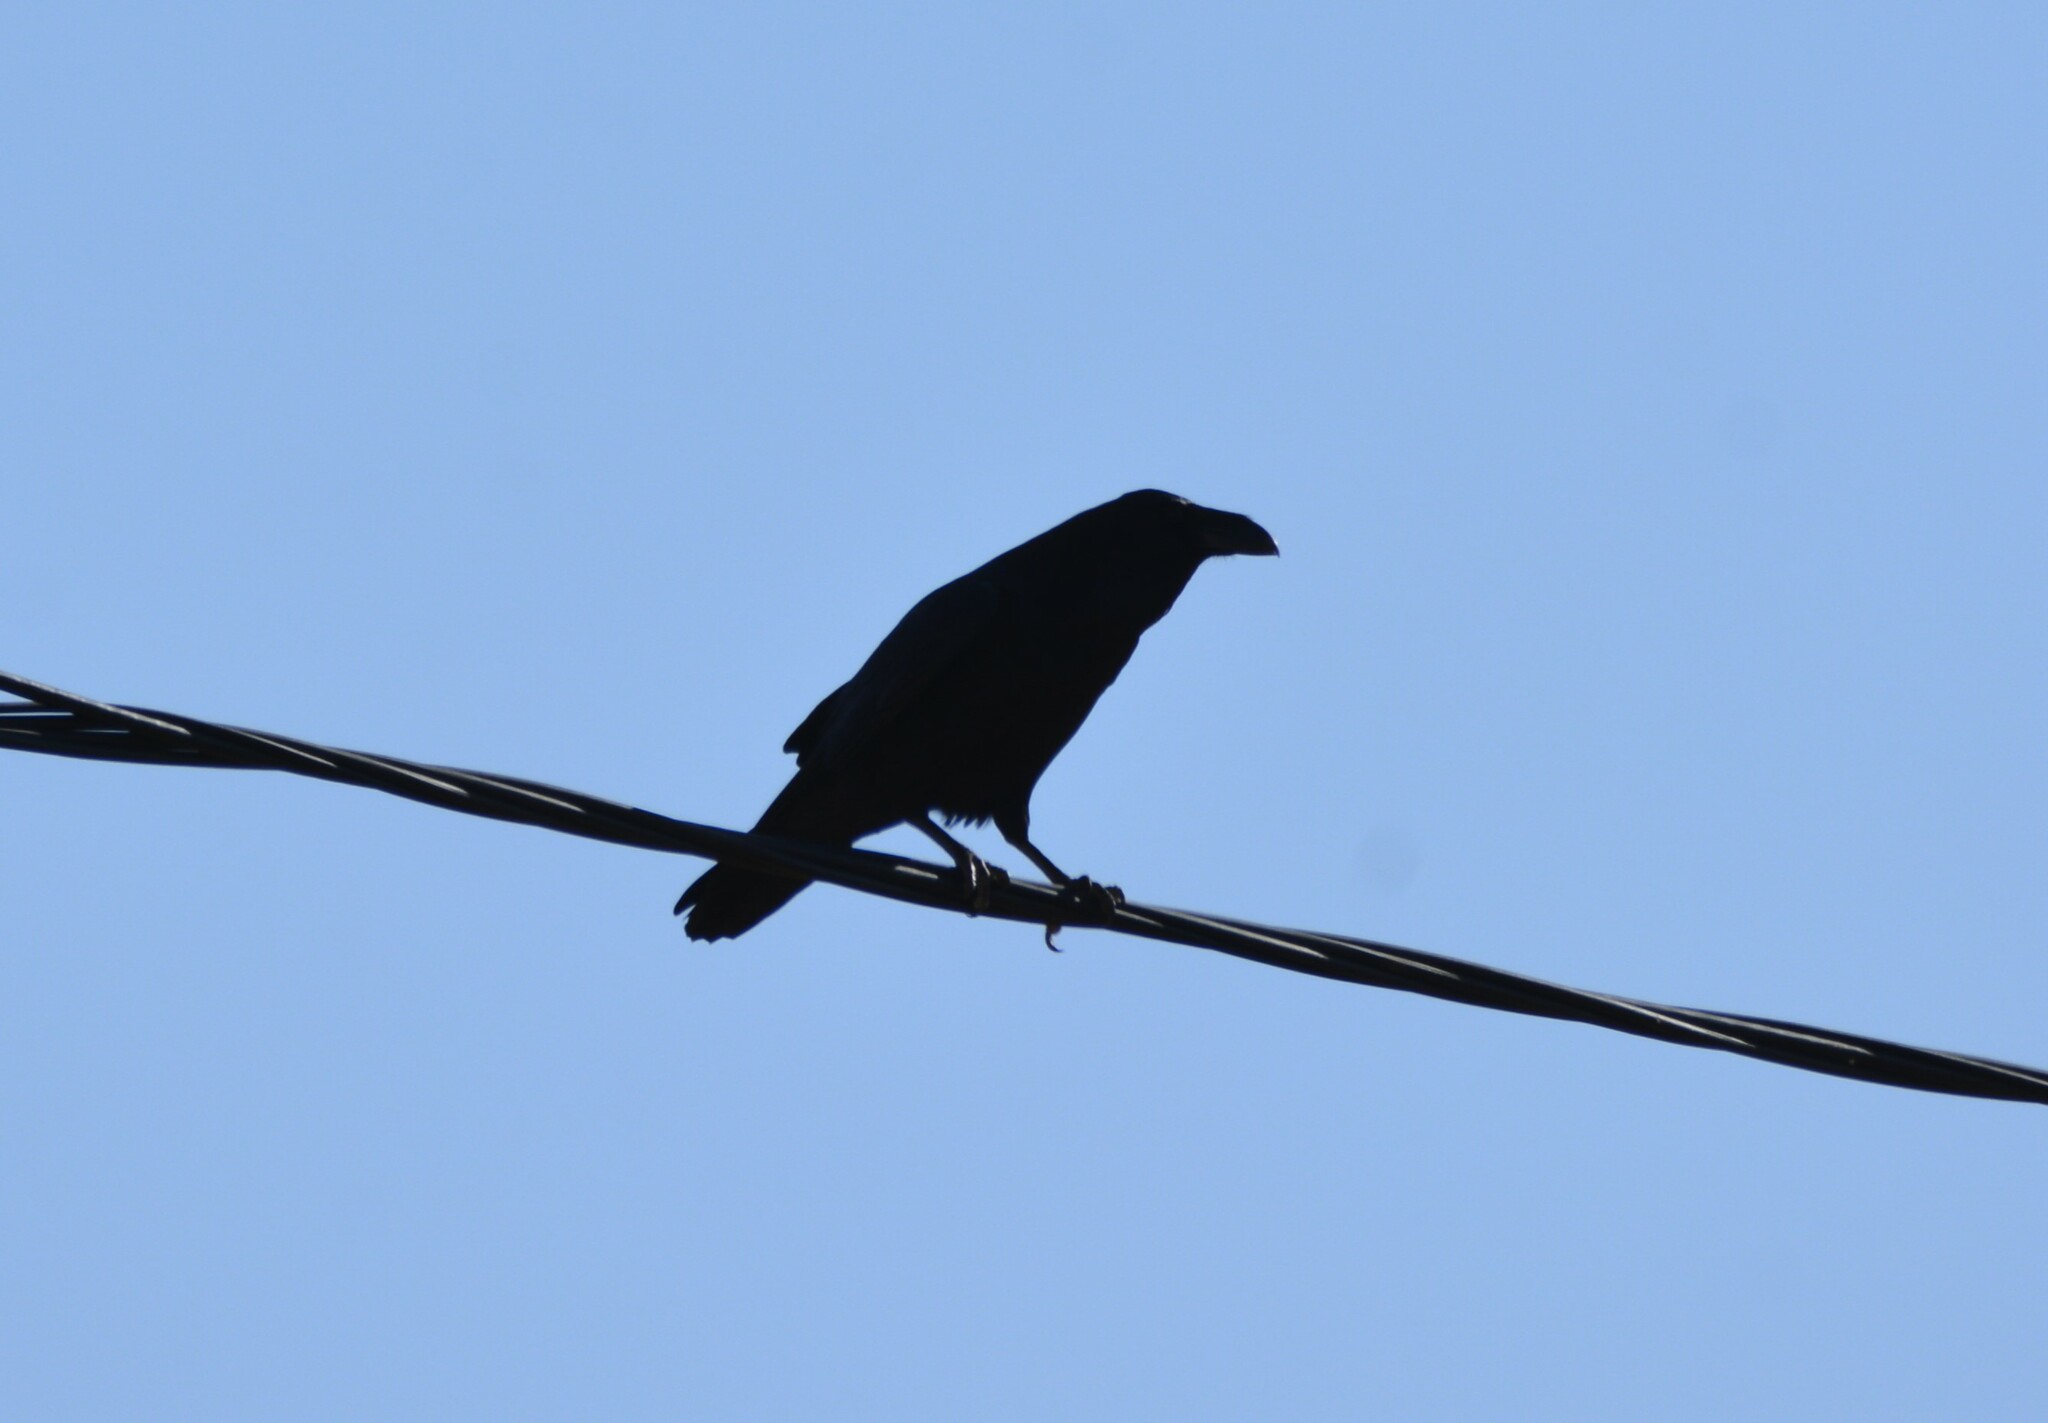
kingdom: Animalia
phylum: Chordata
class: Aves
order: Passeriformes
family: Corvidae
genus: Corvus
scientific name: Corvus corax
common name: Common raven
